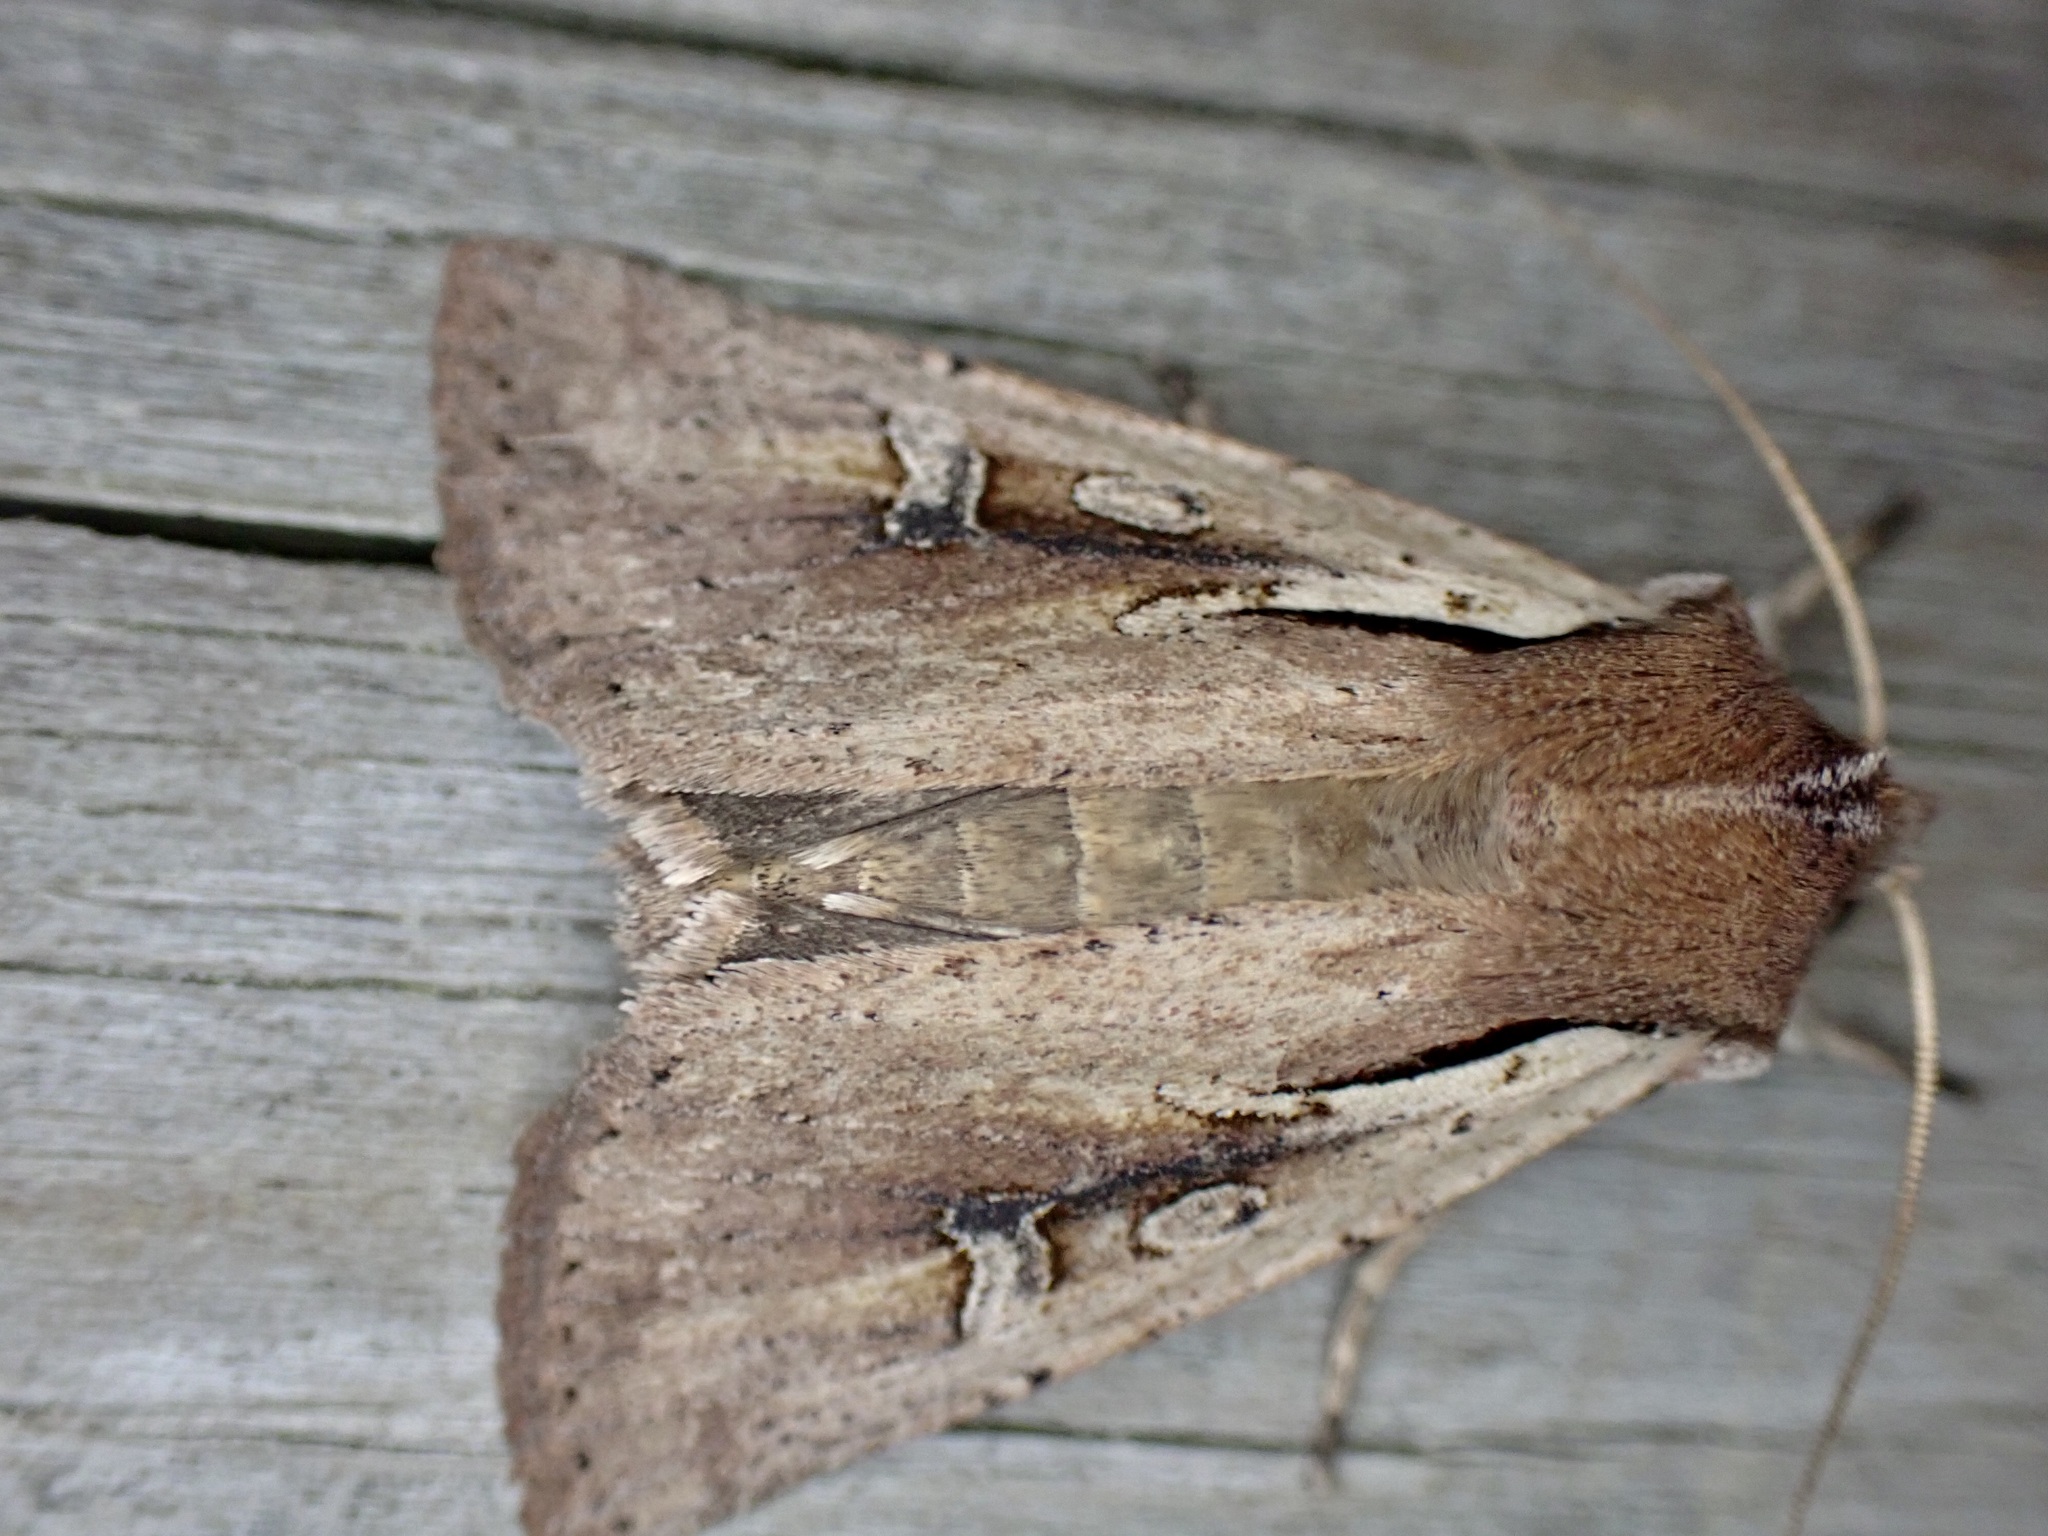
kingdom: Animalia
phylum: Arthropoda
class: Insecta
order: Lepidoptera
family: Noctuidae
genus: Ichneutica
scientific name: Ichneutica atristriga
